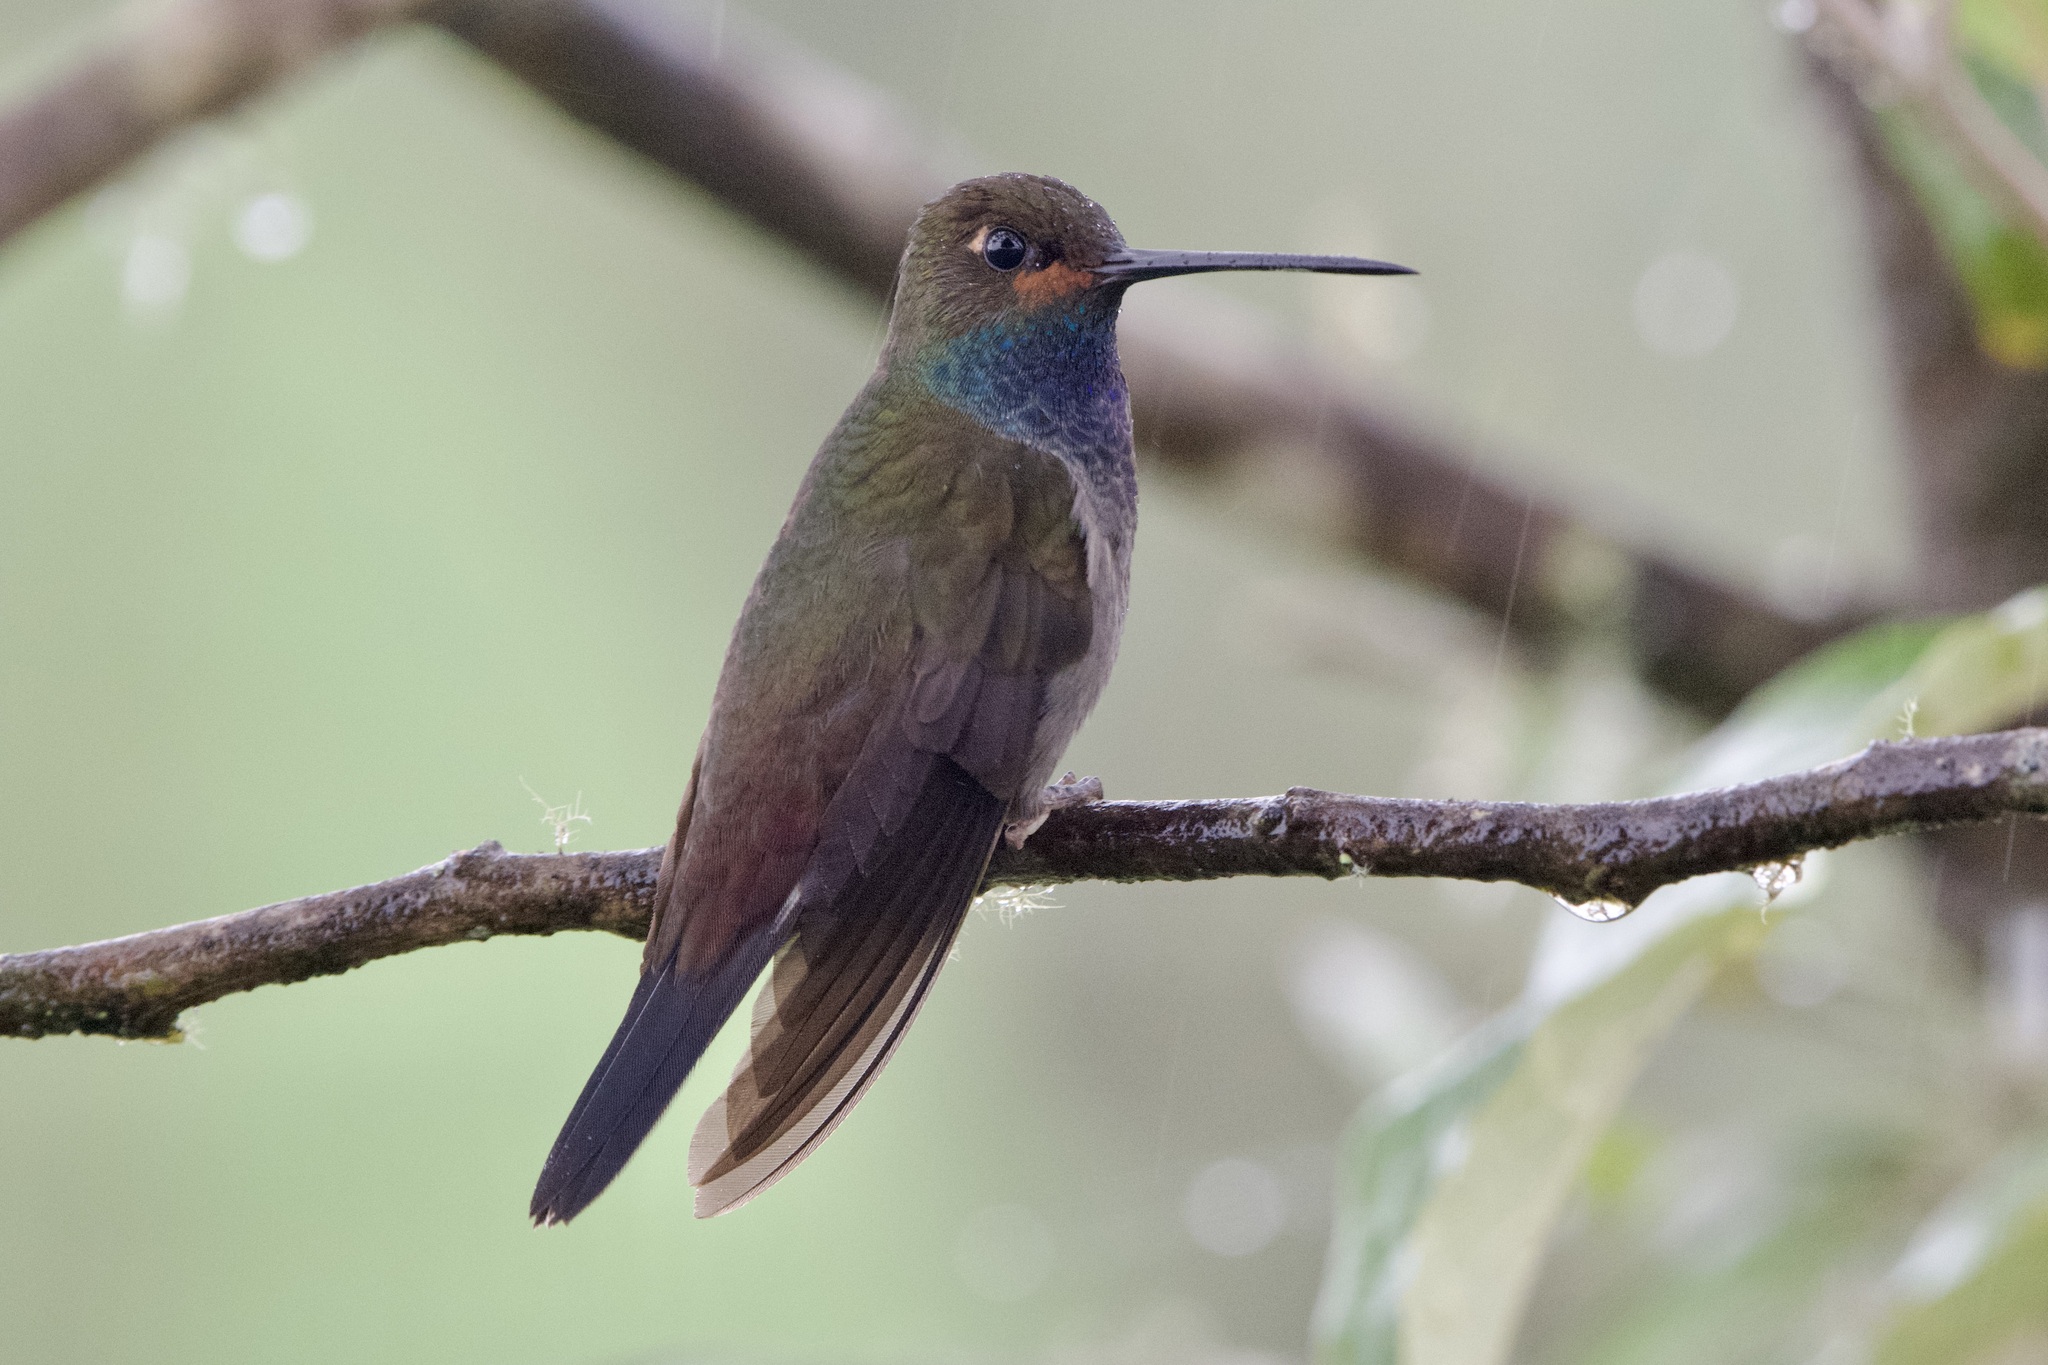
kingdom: Animalia
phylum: Chordata
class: Aves
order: Apodiformes
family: Trochilidae
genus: Urochroa
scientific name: Urochroa bougueri
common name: White-tailed hillstar
